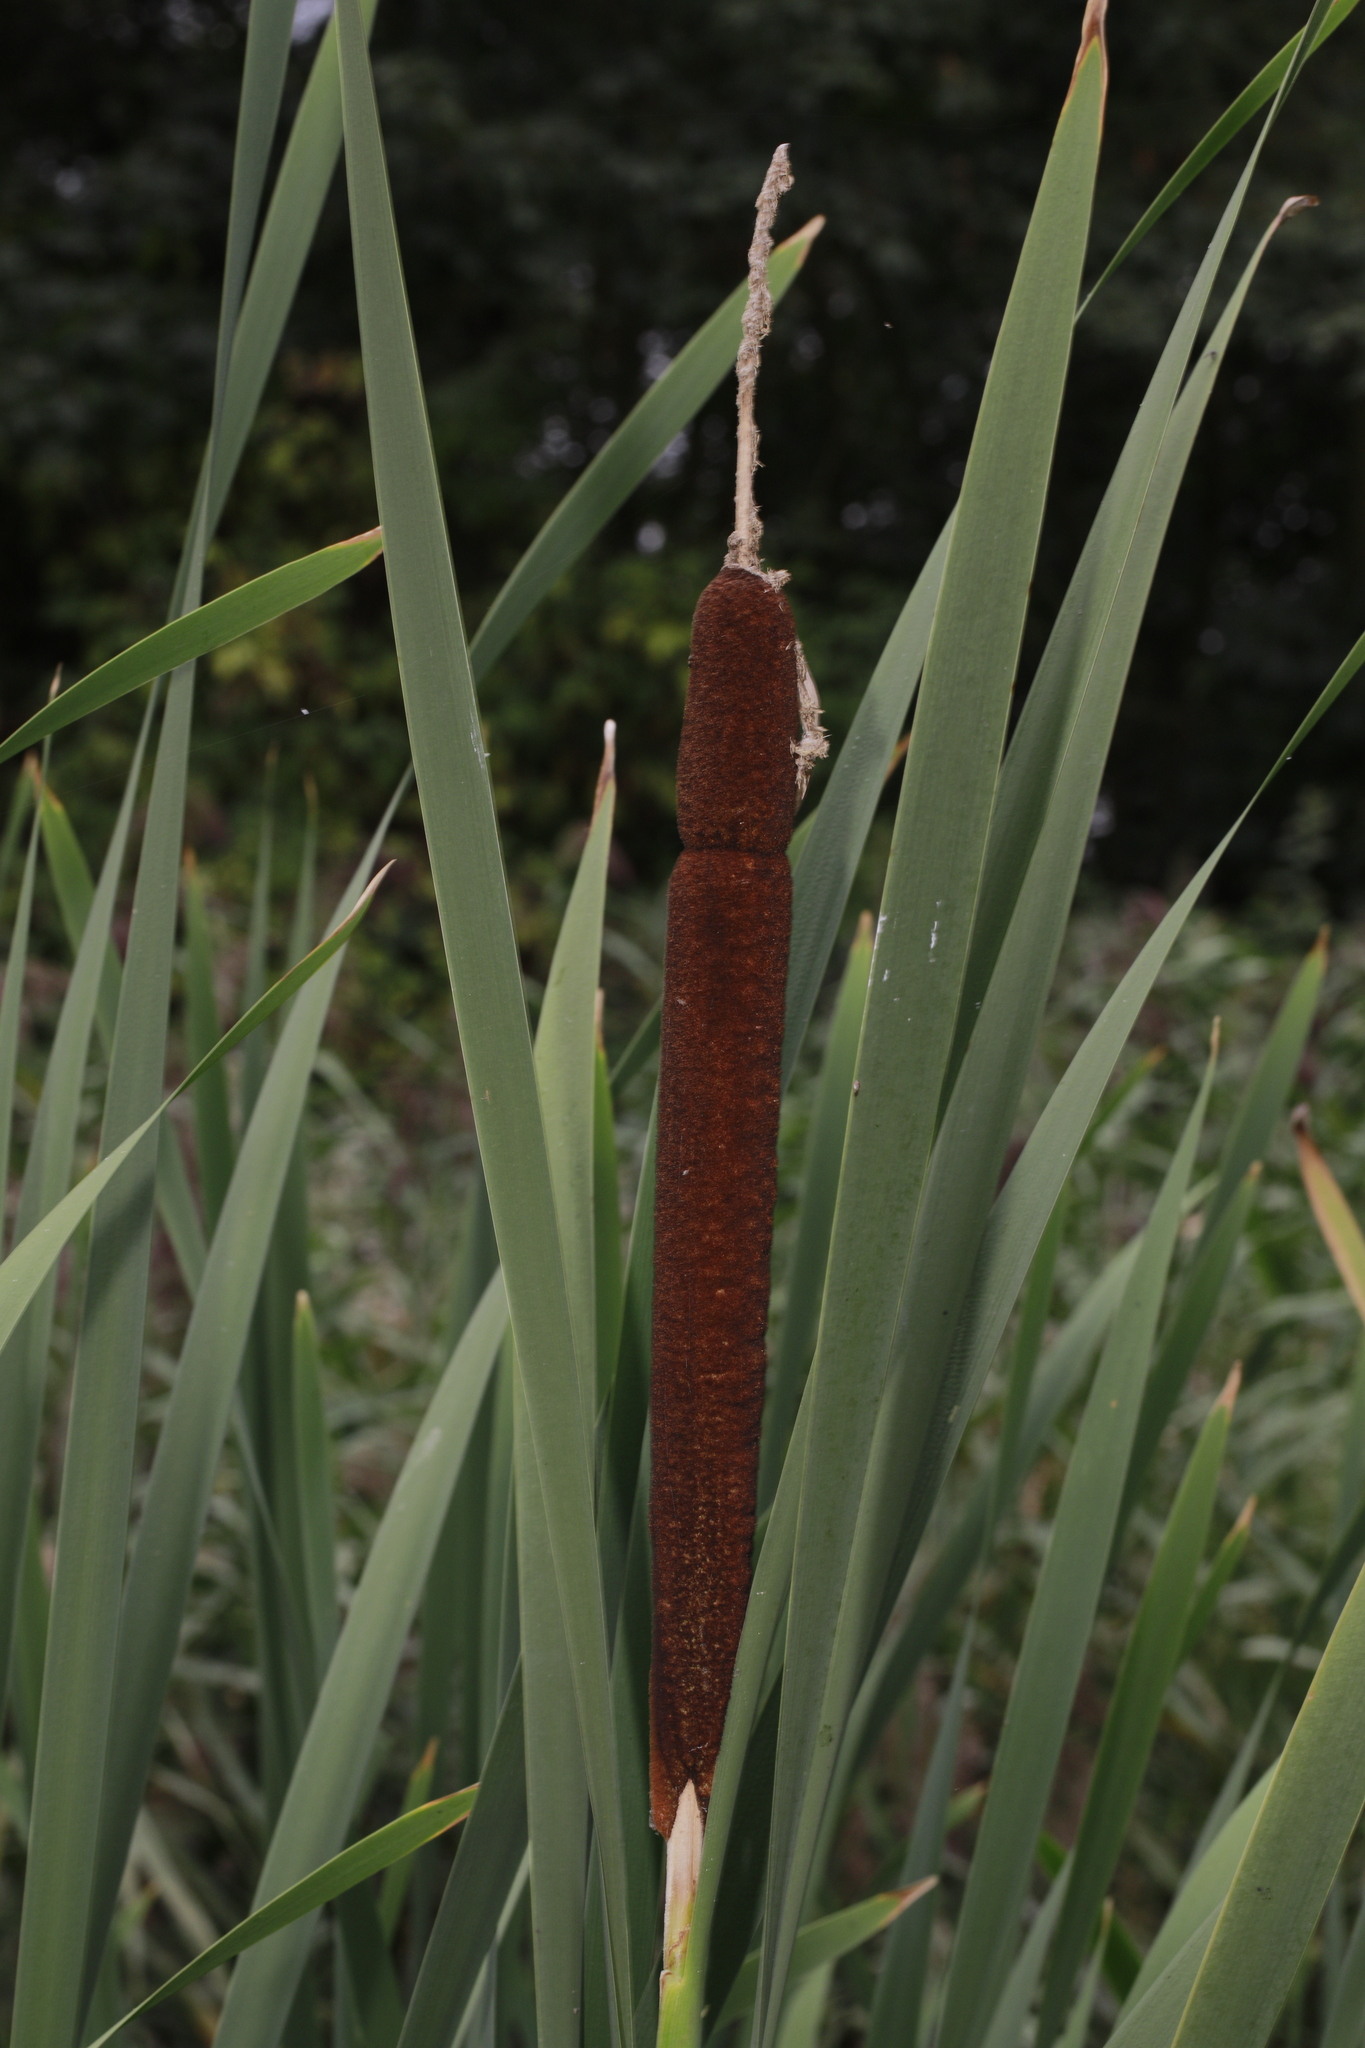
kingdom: Plantae
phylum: Tracheophyta
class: Liliopsida
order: Poales
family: Typhaceae
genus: Typha
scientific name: Typha latifolia
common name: Broadleaf cattail
